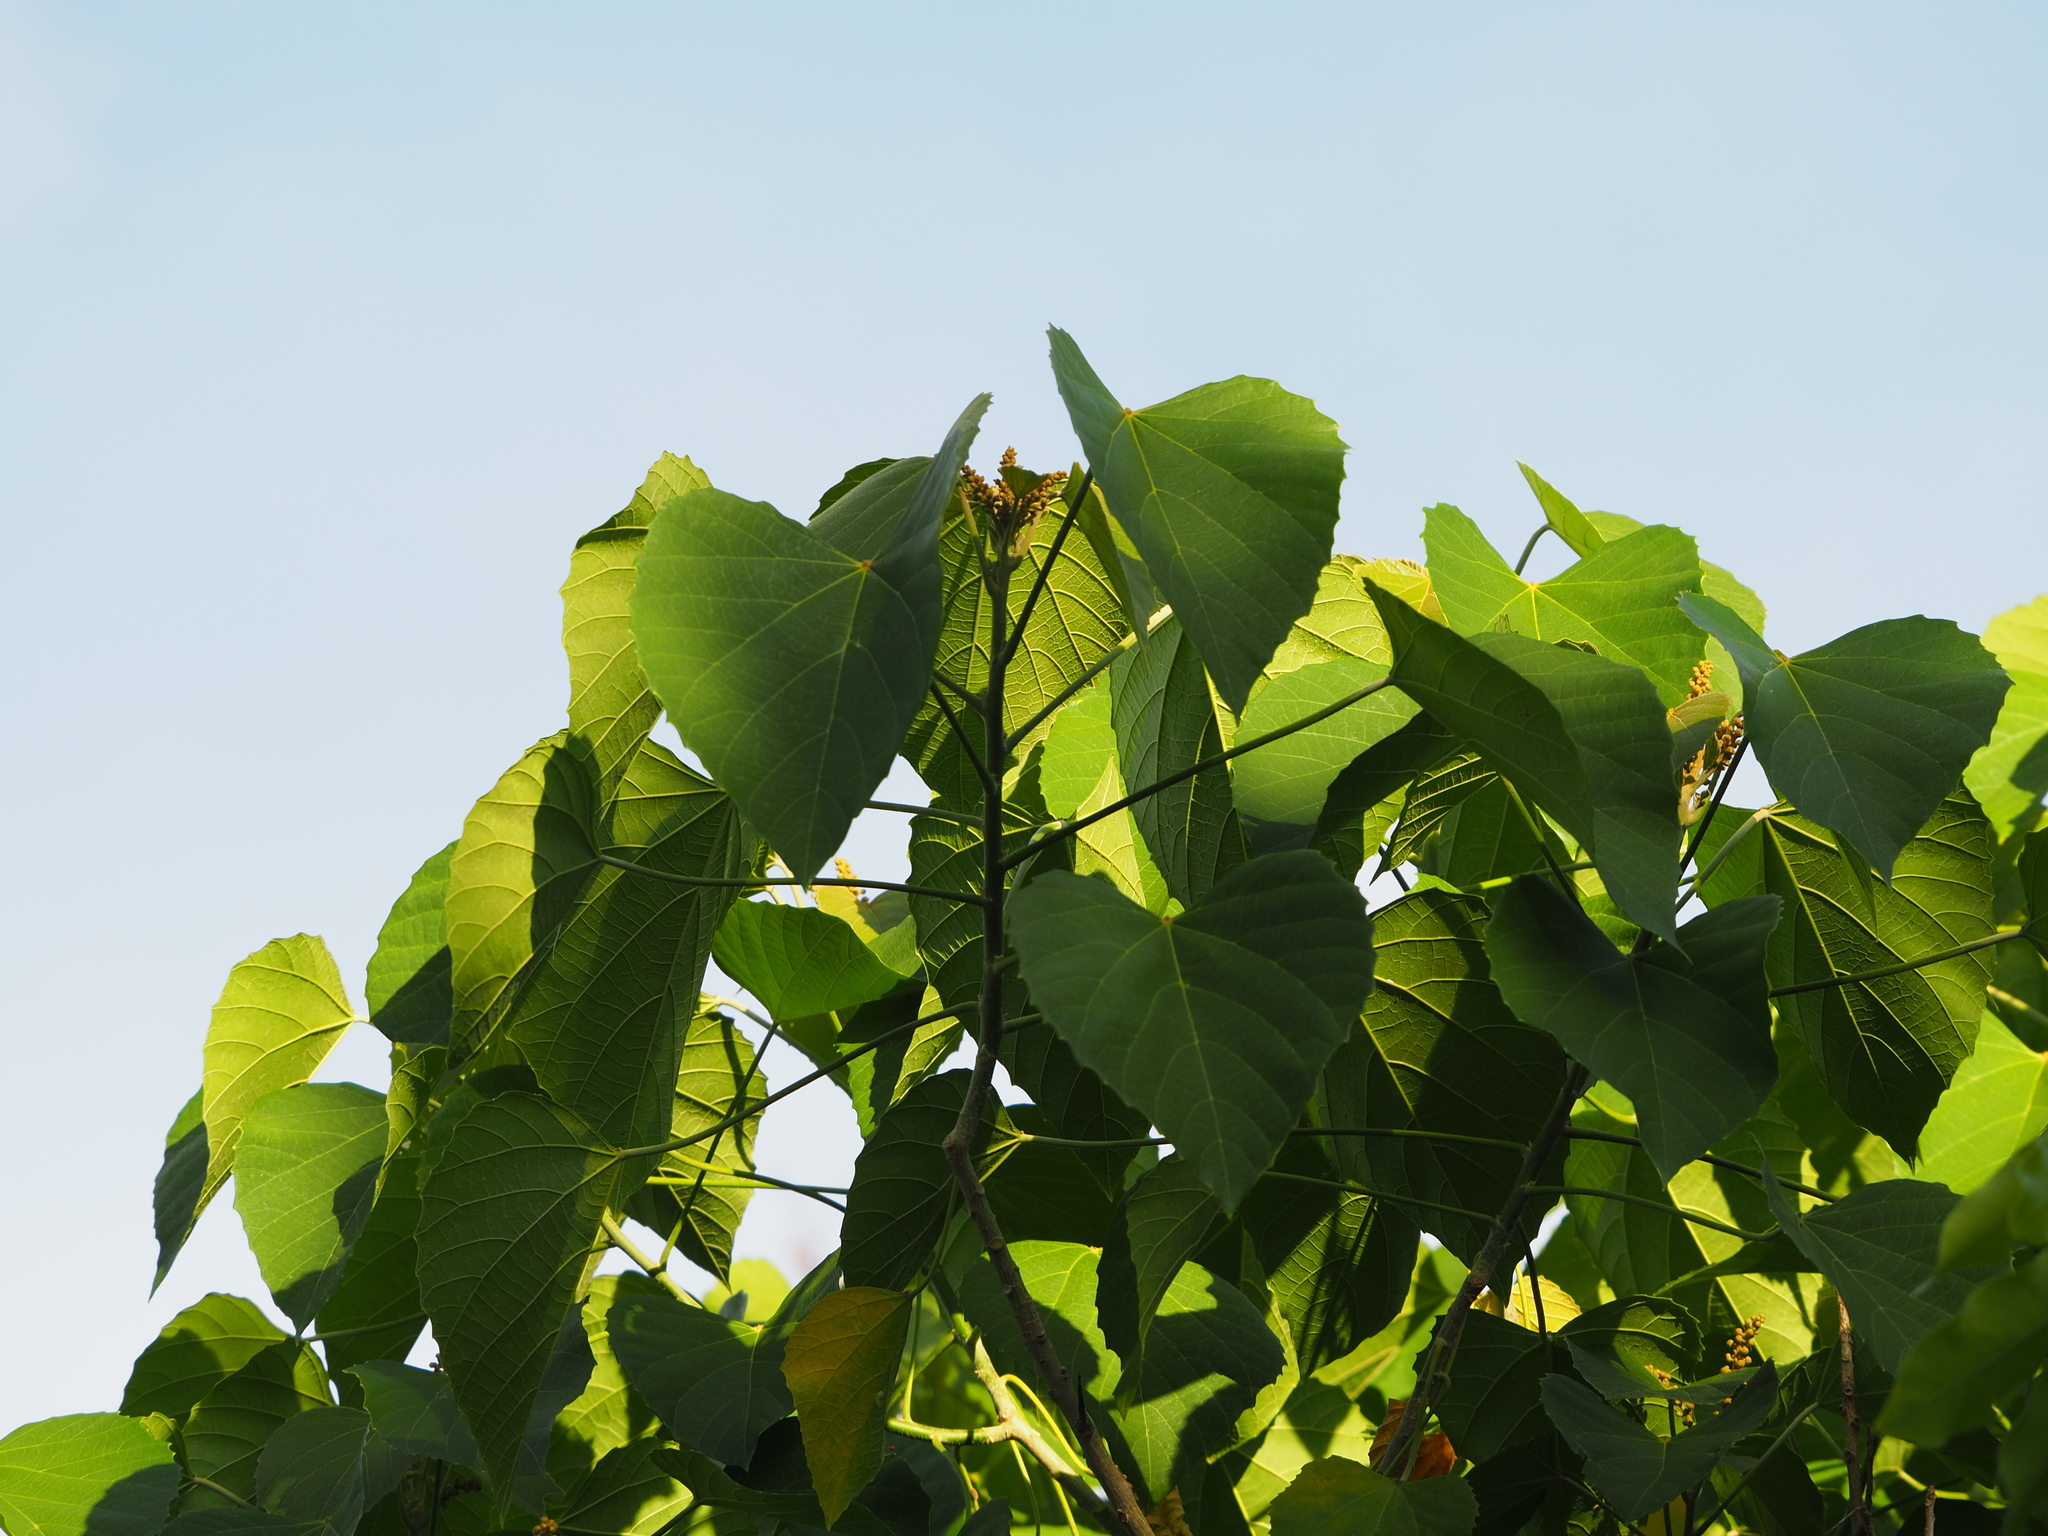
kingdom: Plantae
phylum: Tracheophyta
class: Magnoliopsida
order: Malpighiales
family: Euphorbiaceae
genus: Melanolepis
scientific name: Melanolepis multiglandulosa
